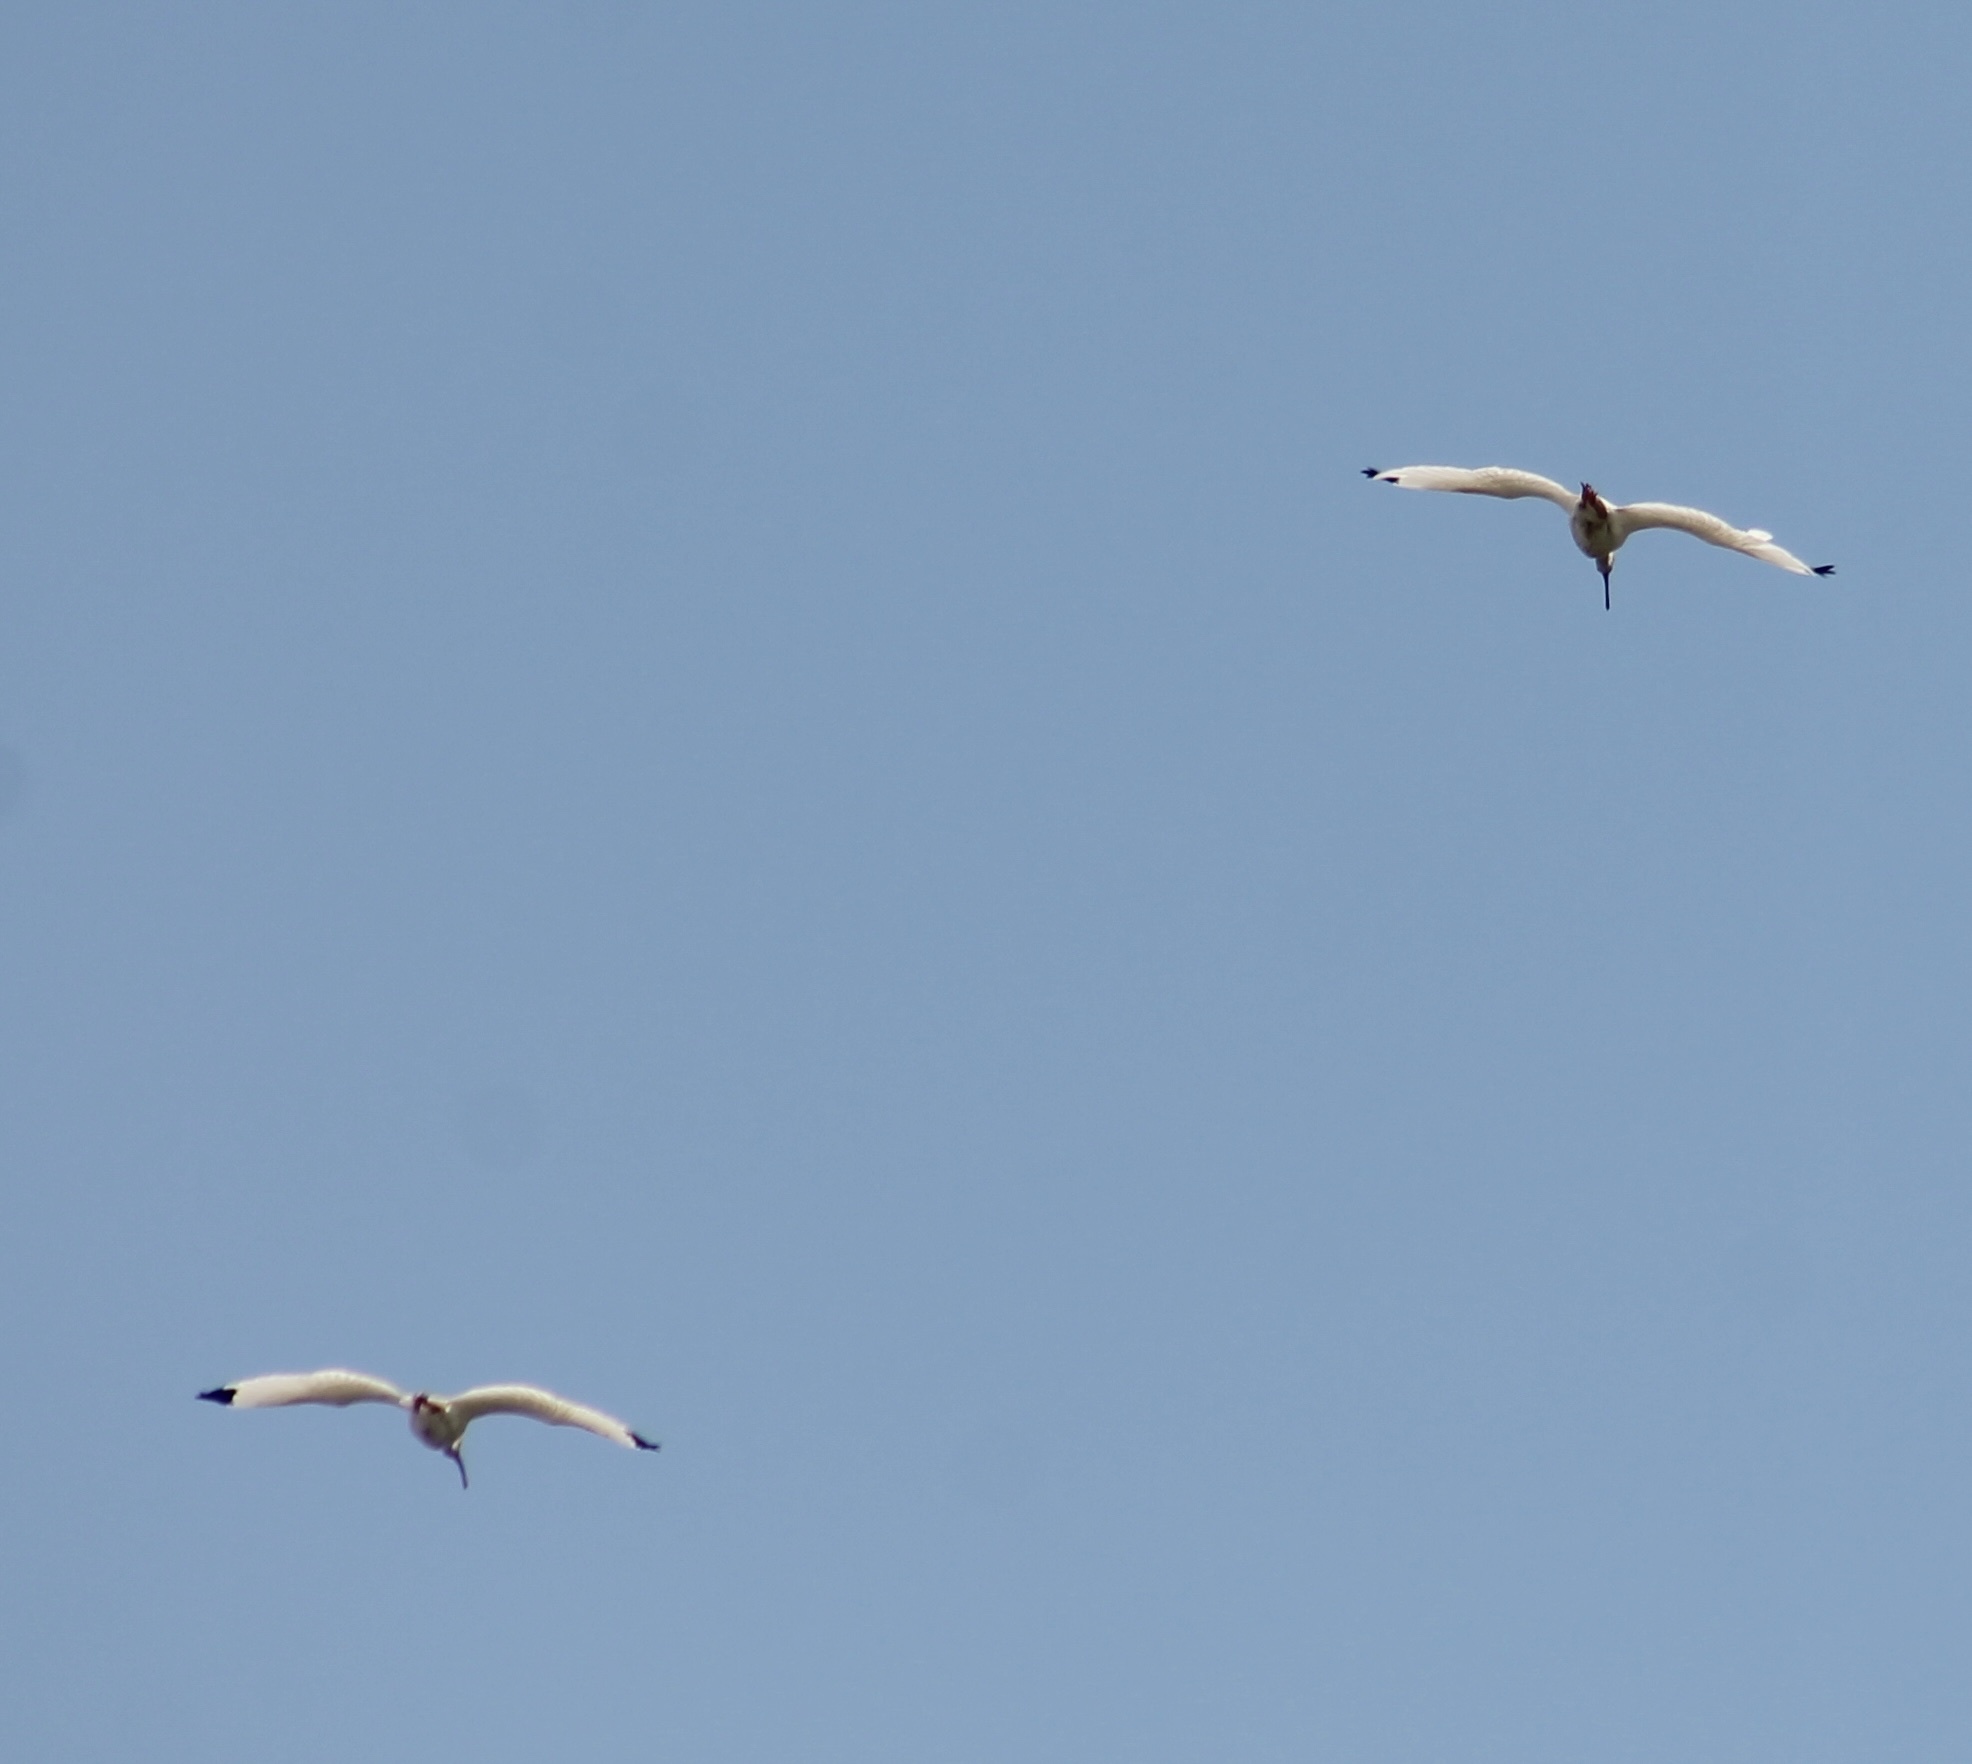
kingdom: Animalia
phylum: Chordata
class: Aves
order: Pelecaniformes
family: Threskiornithidae
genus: Eudocimus
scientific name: Eudocimus albus
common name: White ibis
